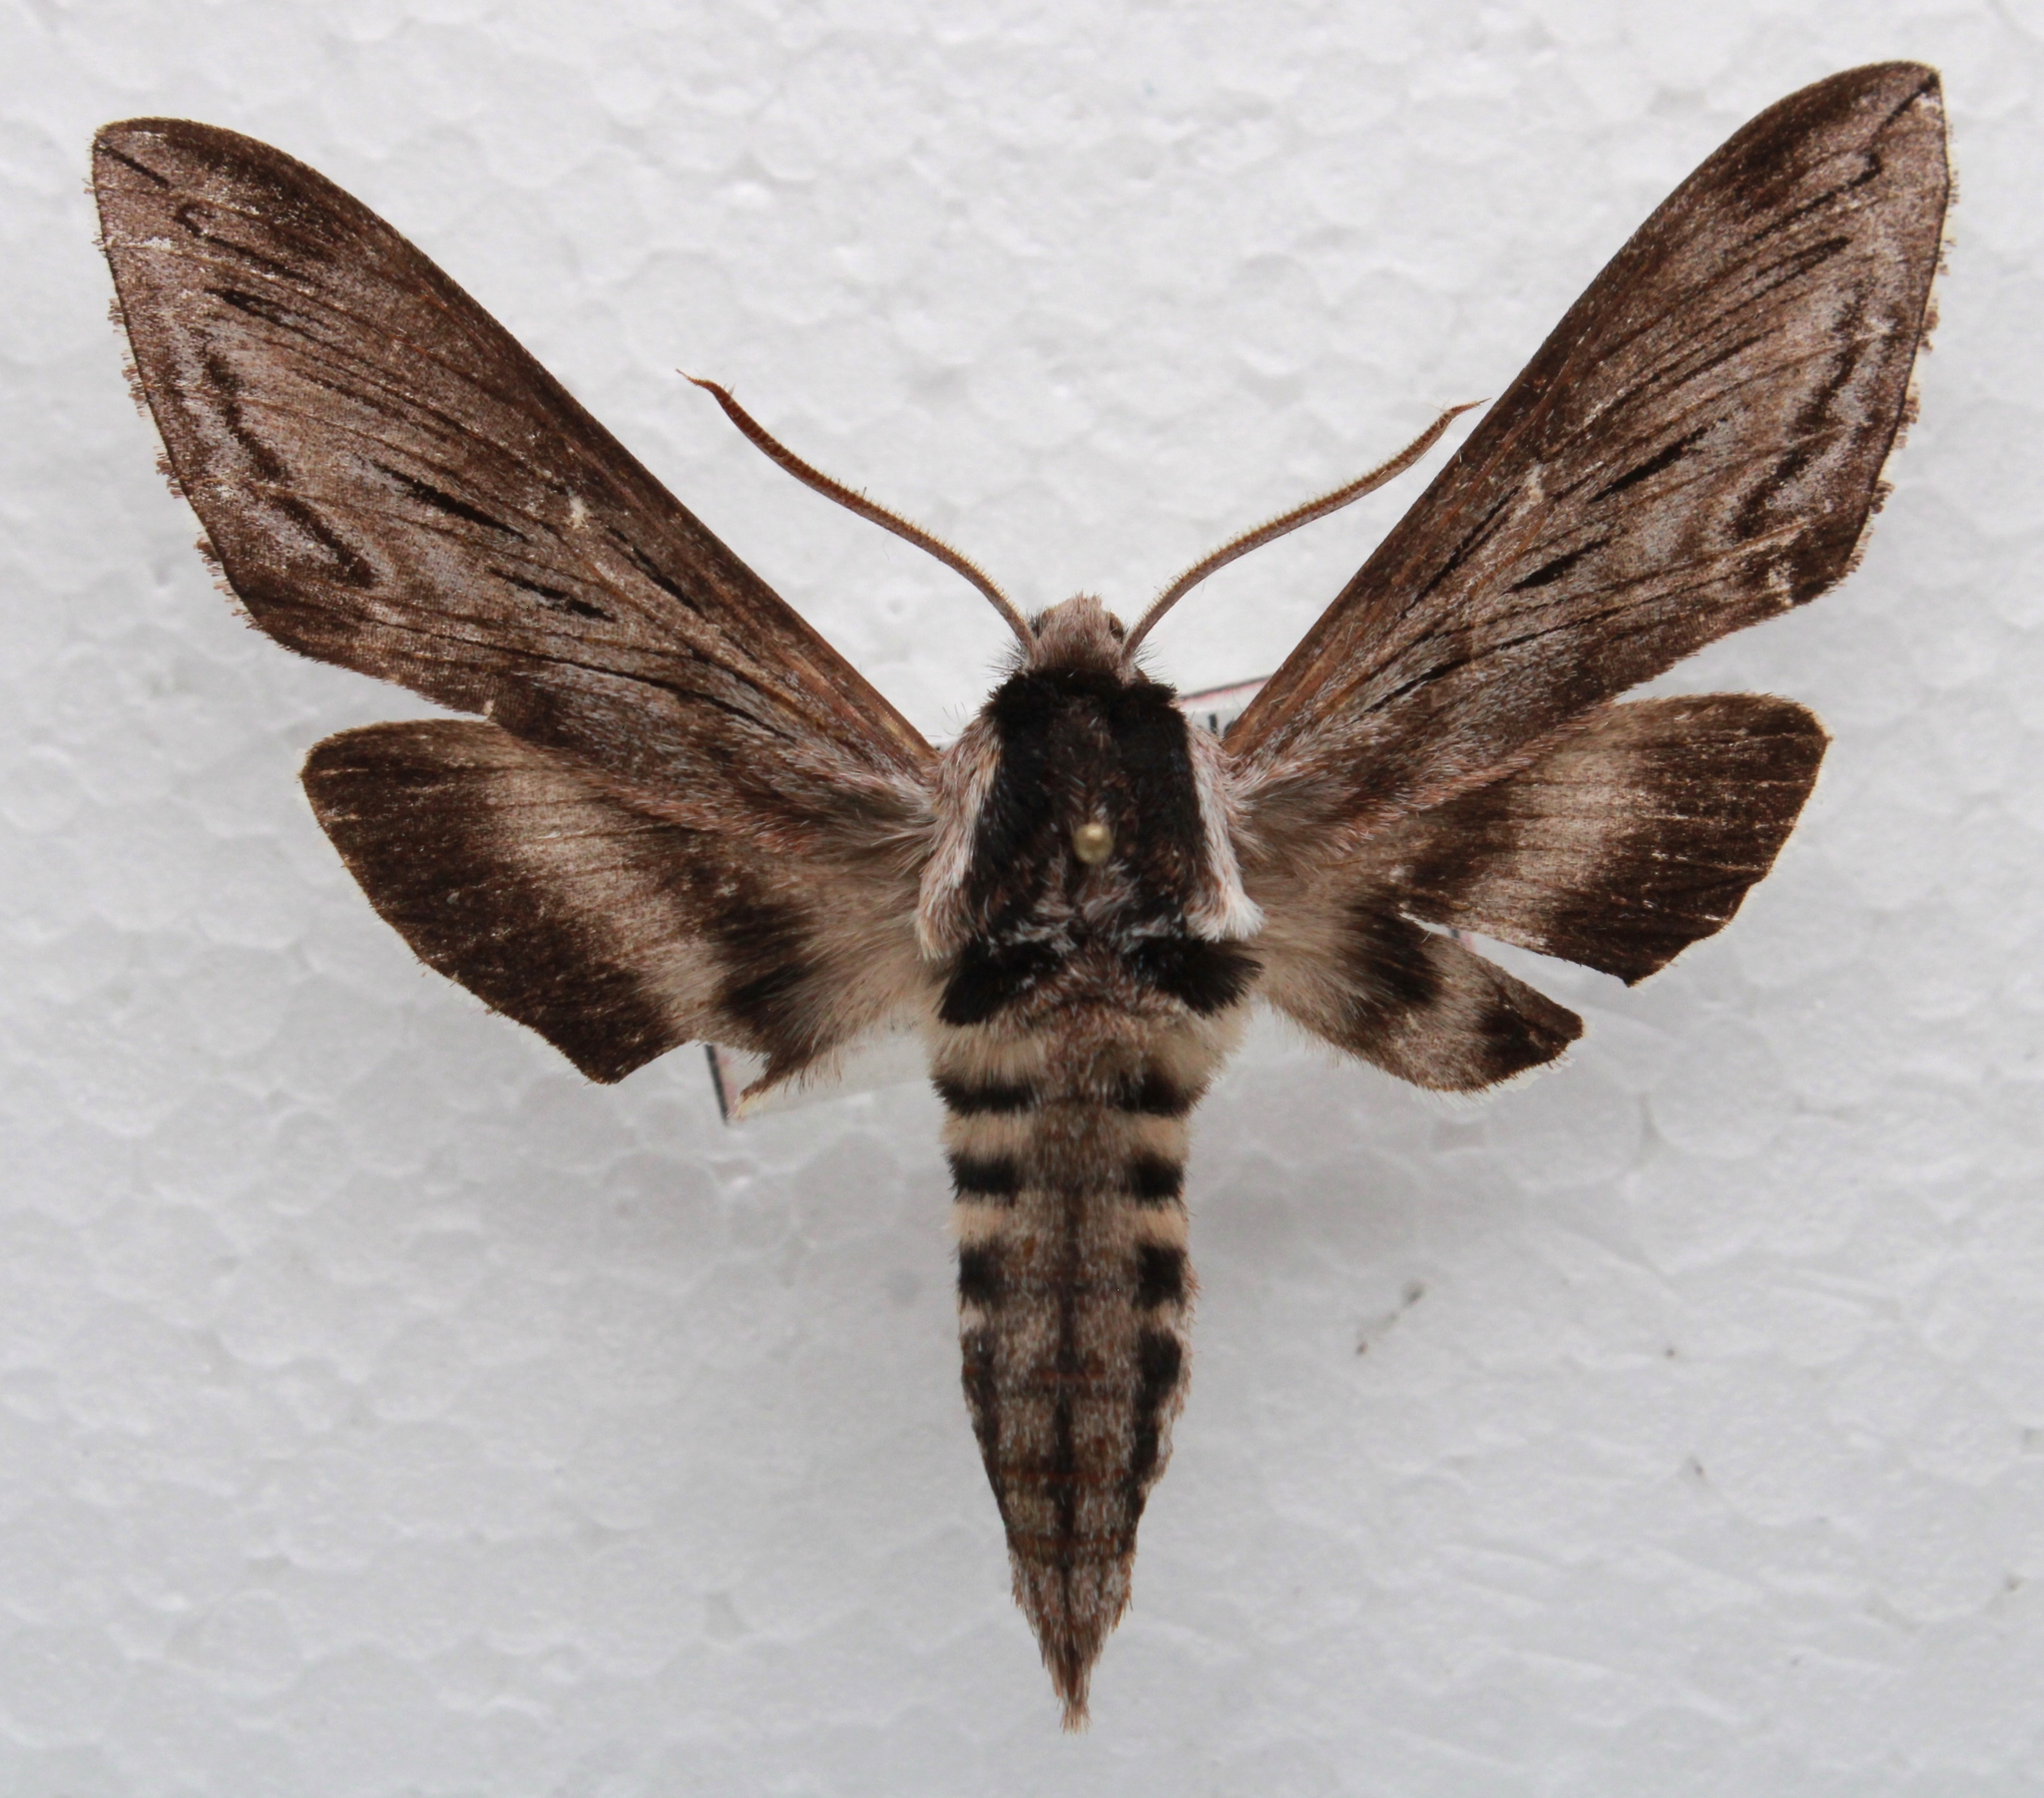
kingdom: Animalia
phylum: Arthropoda
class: Insecta
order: Lepidoptera
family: Sphingidae
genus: Sphinx
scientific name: Sphinx gordius
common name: Apple sphinx
